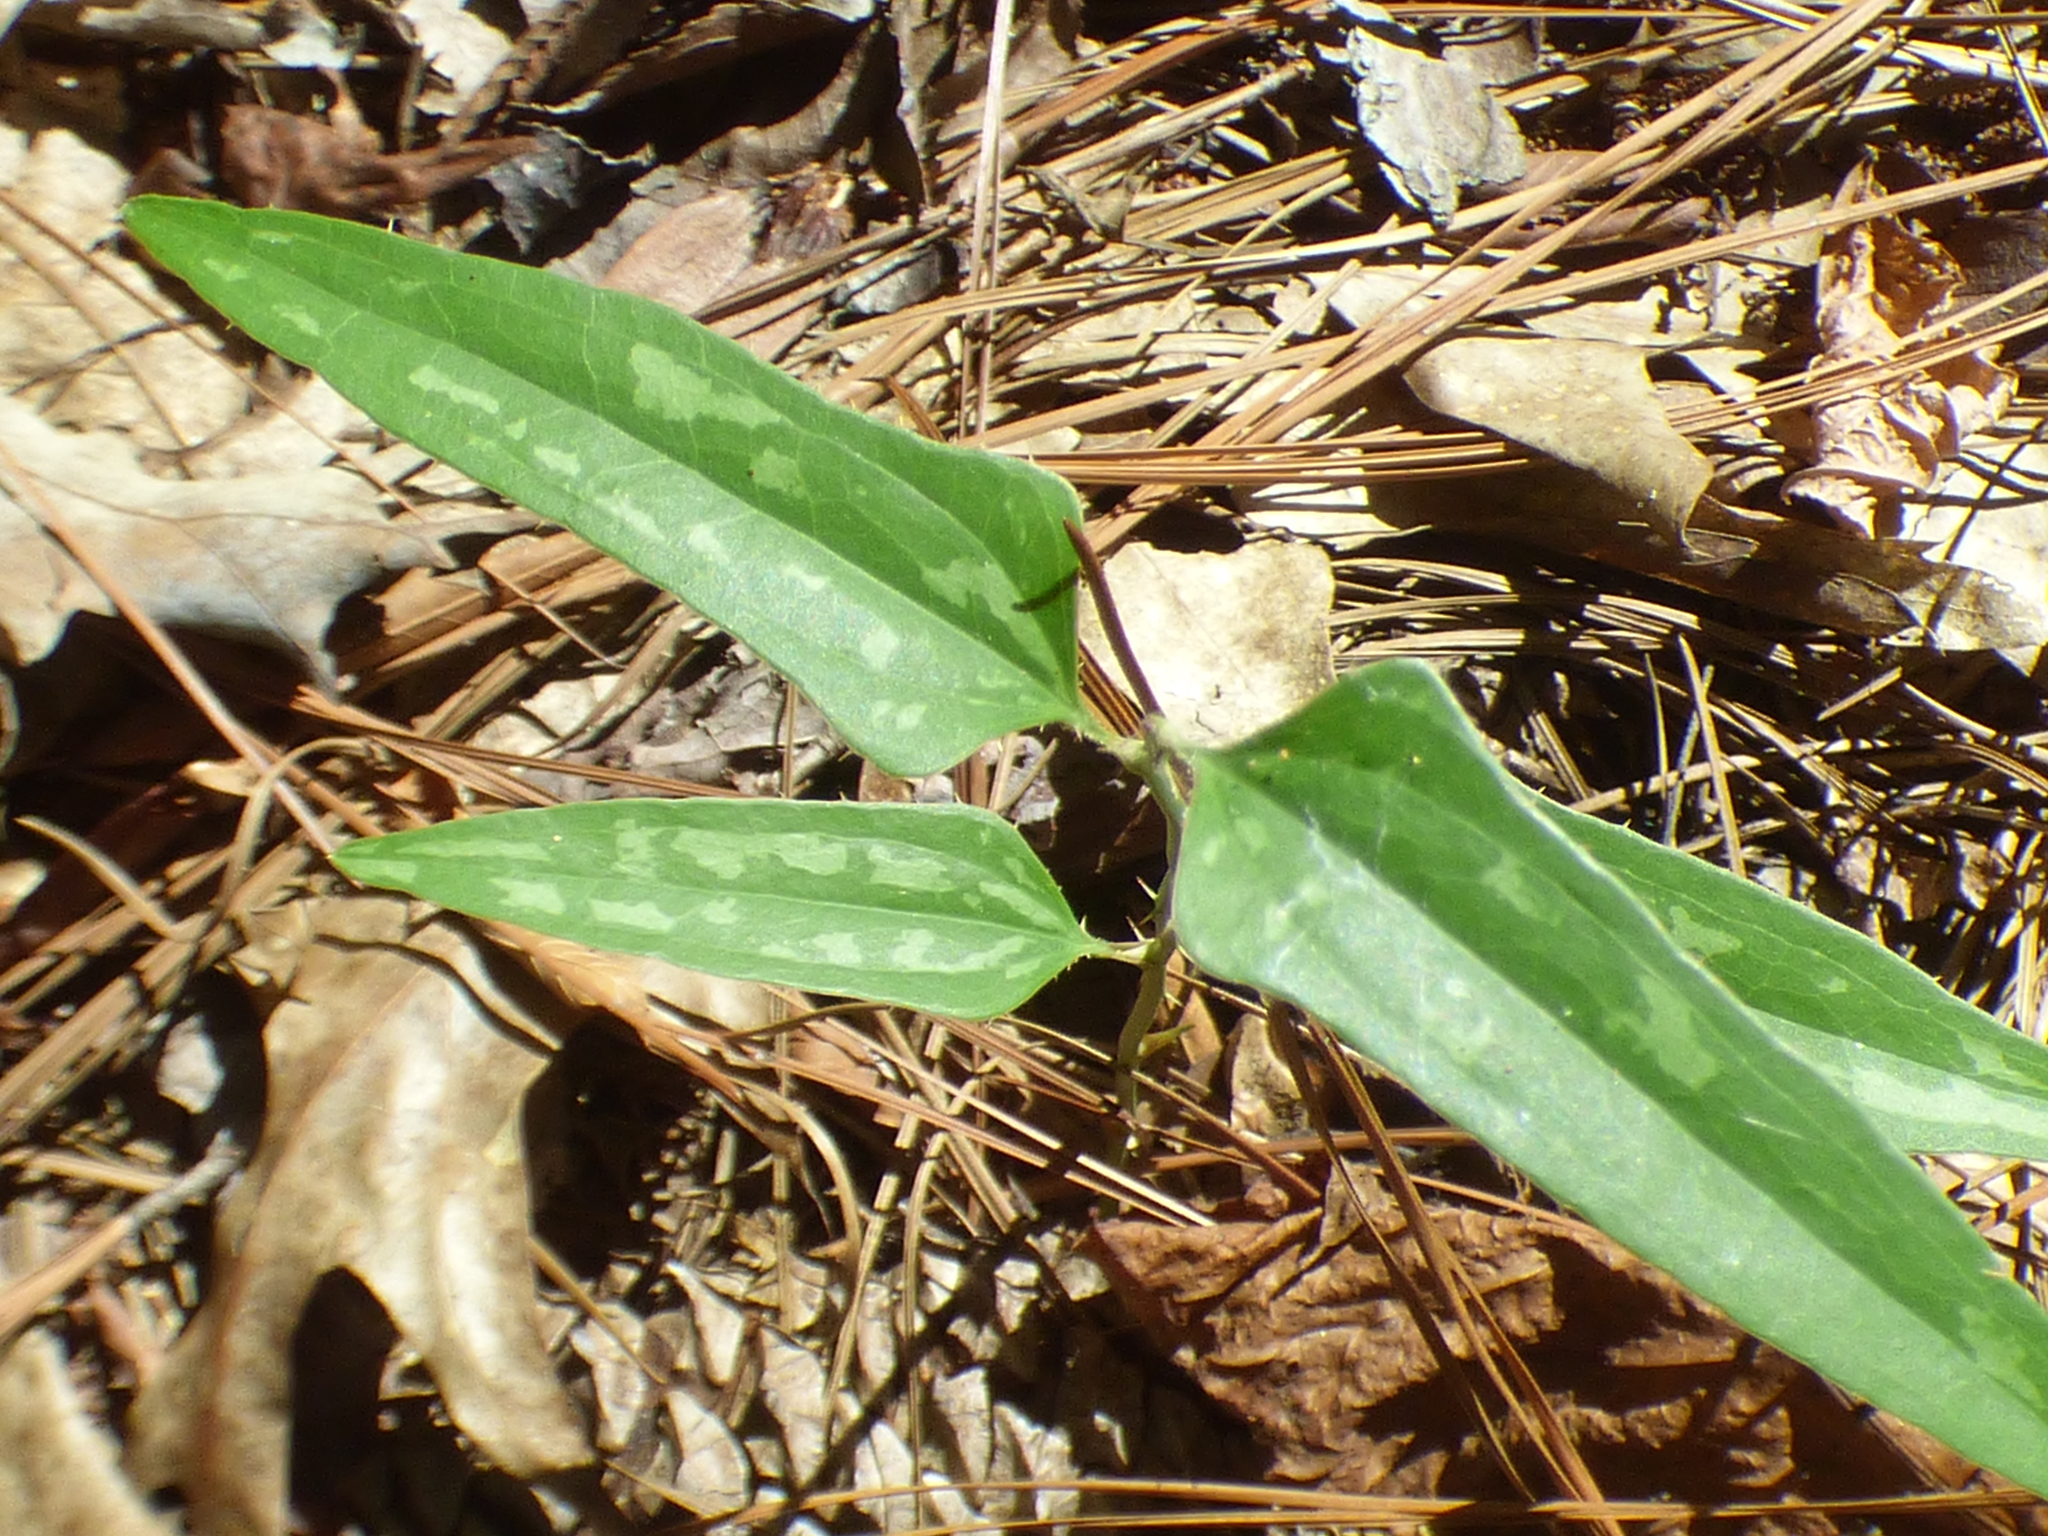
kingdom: Plantae
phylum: Tracheophyta
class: Liliopsida
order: Liliales
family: Smilacaceae
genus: Smilax
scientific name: Smilax bona-nox
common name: Catbrier
